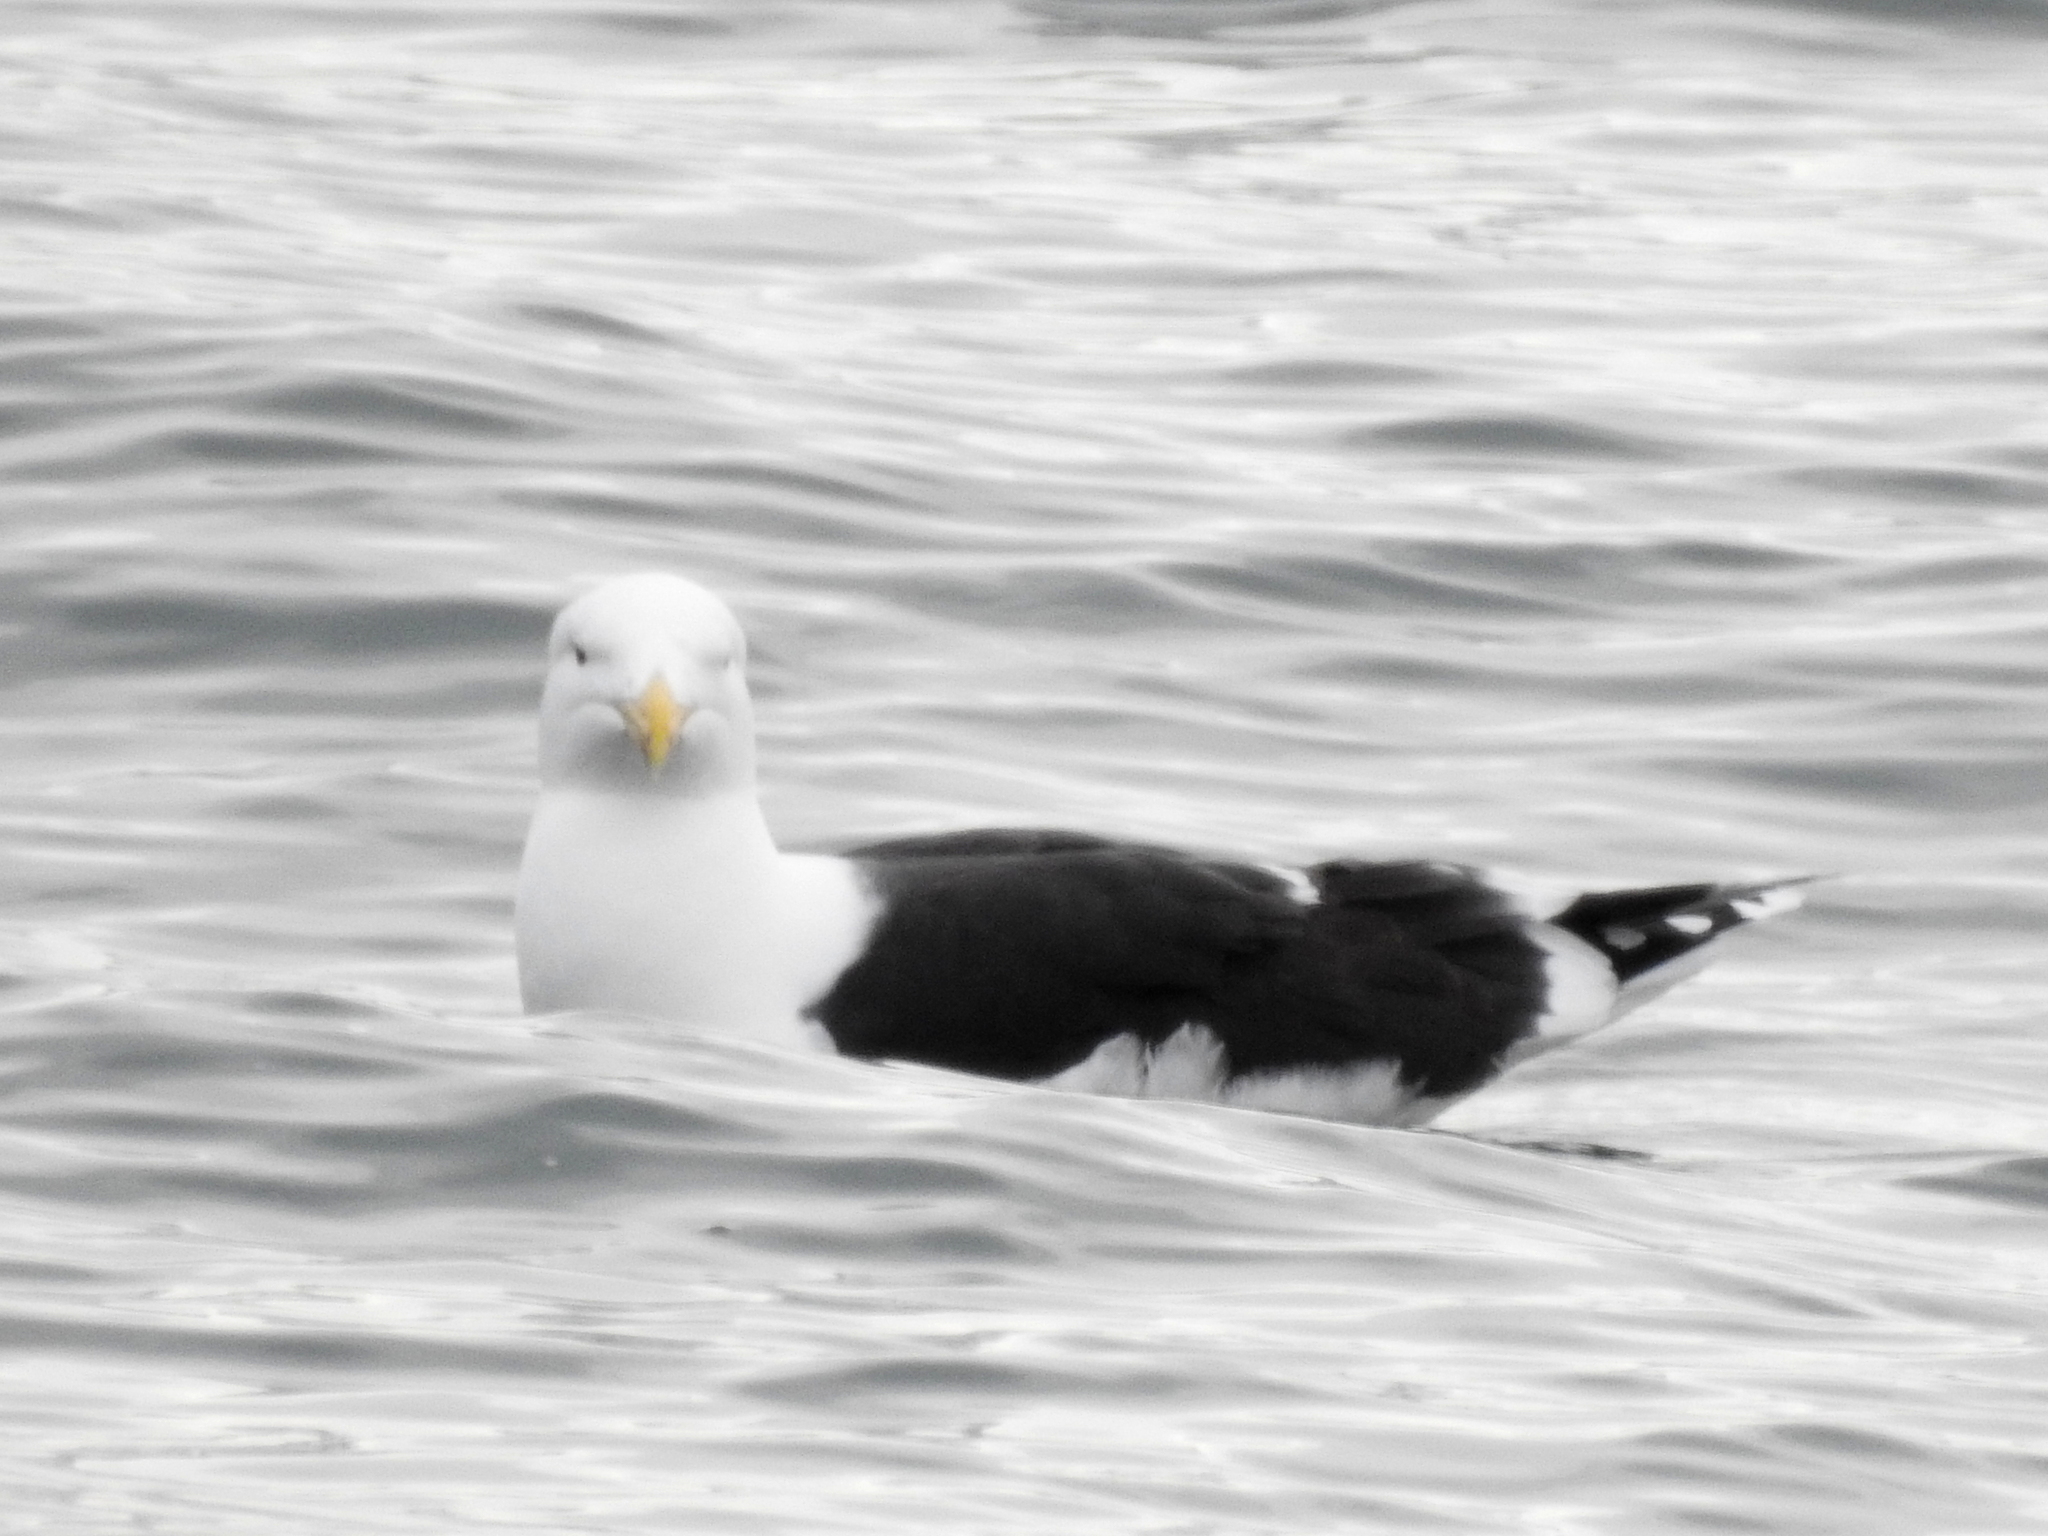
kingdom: Animalia
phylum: Chordata
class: Aves
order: Charadriiformes
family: Laridae
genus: Larus
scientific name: Larus marinus
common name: Great black-backed gull
